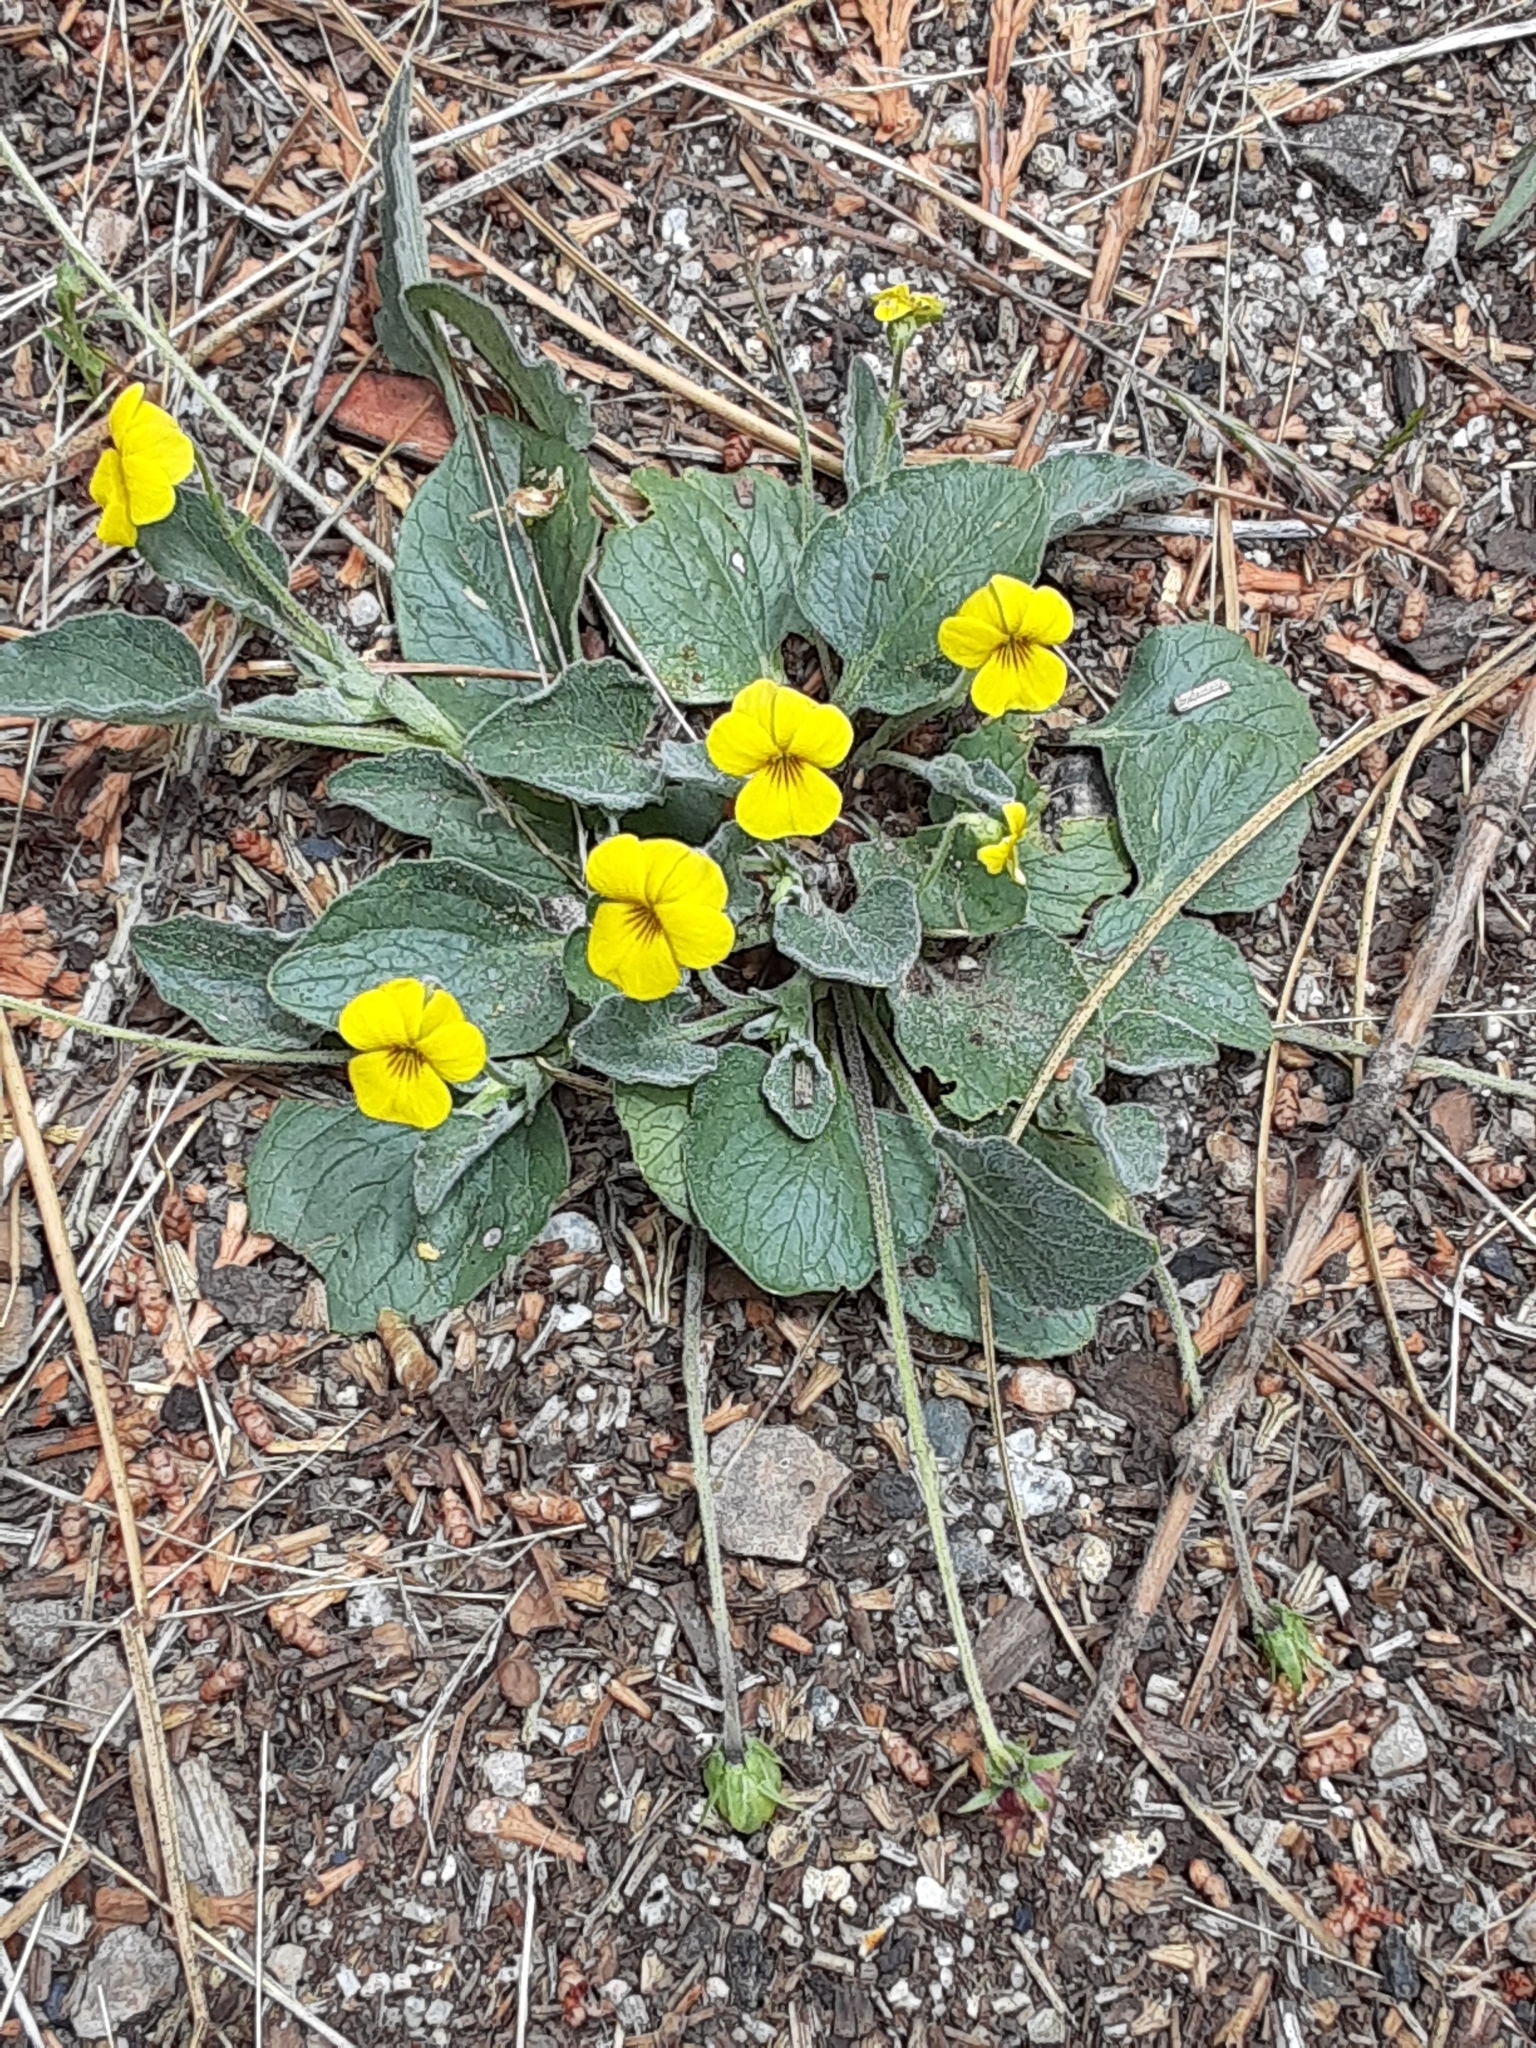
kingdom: Plantae
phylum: Tracheophyta
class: Magnoliopsida
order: Malpighiales
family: Violaceae
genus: Viola
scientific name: Viola purpurea
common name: Pine violet
